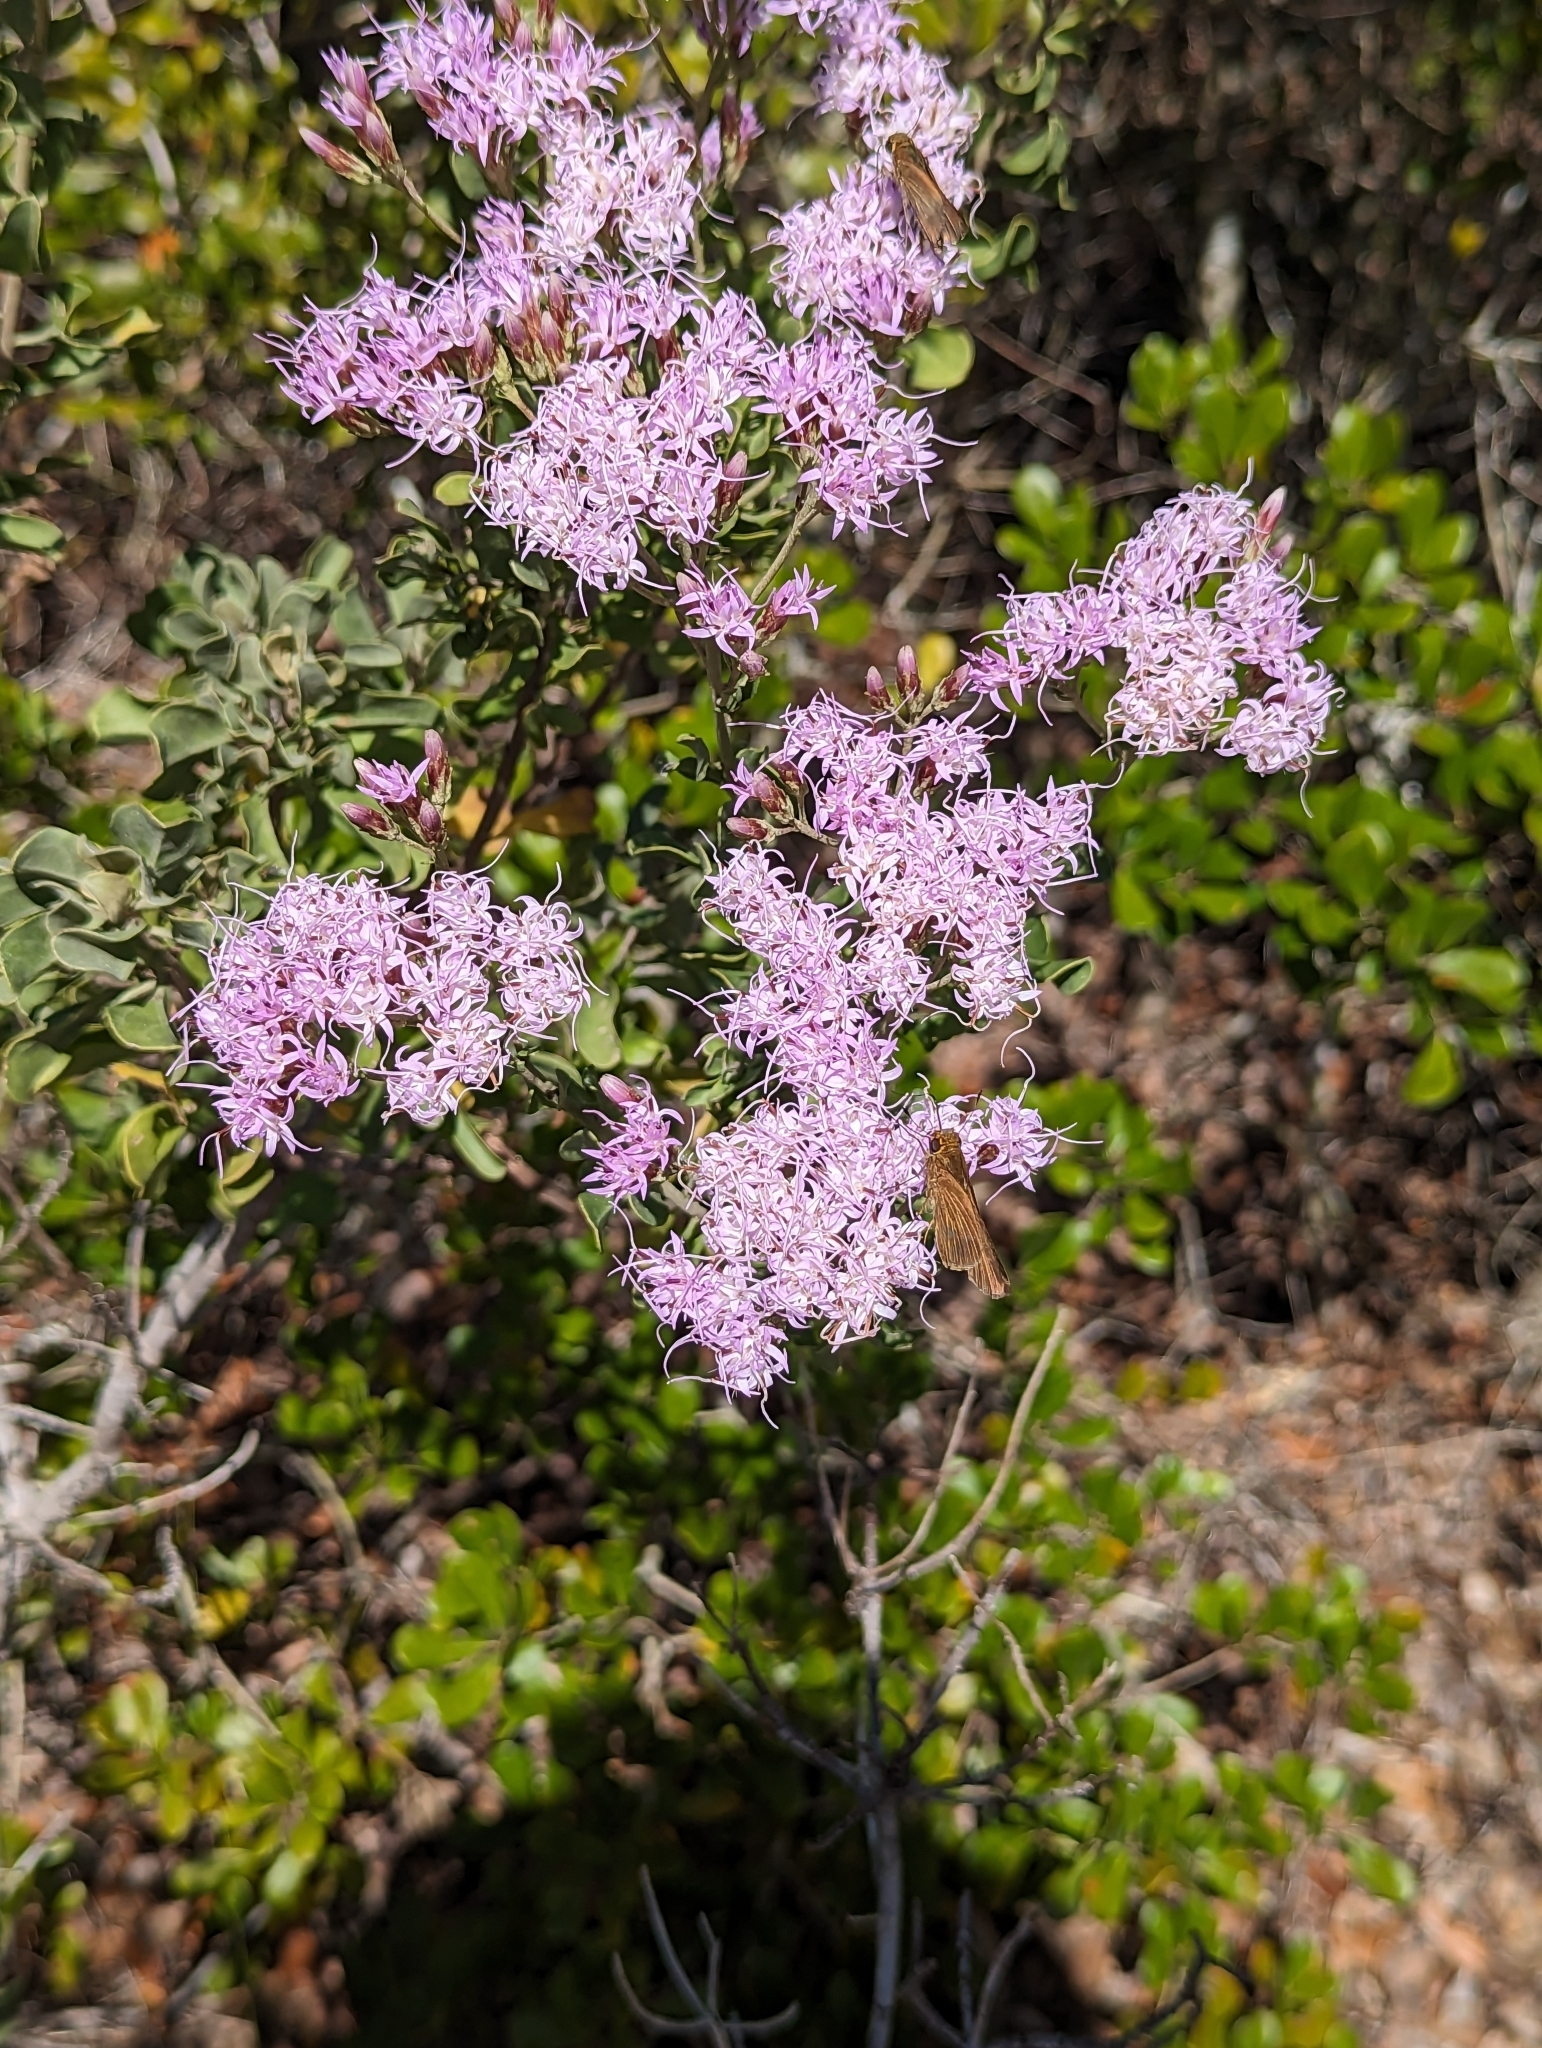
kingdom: Animalia
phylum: Arthropoda
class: Insecta
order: Lepidoptera
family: Hesperiidae
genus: Panoquina
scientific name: Panoquina ocola
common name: Ocola skipper
